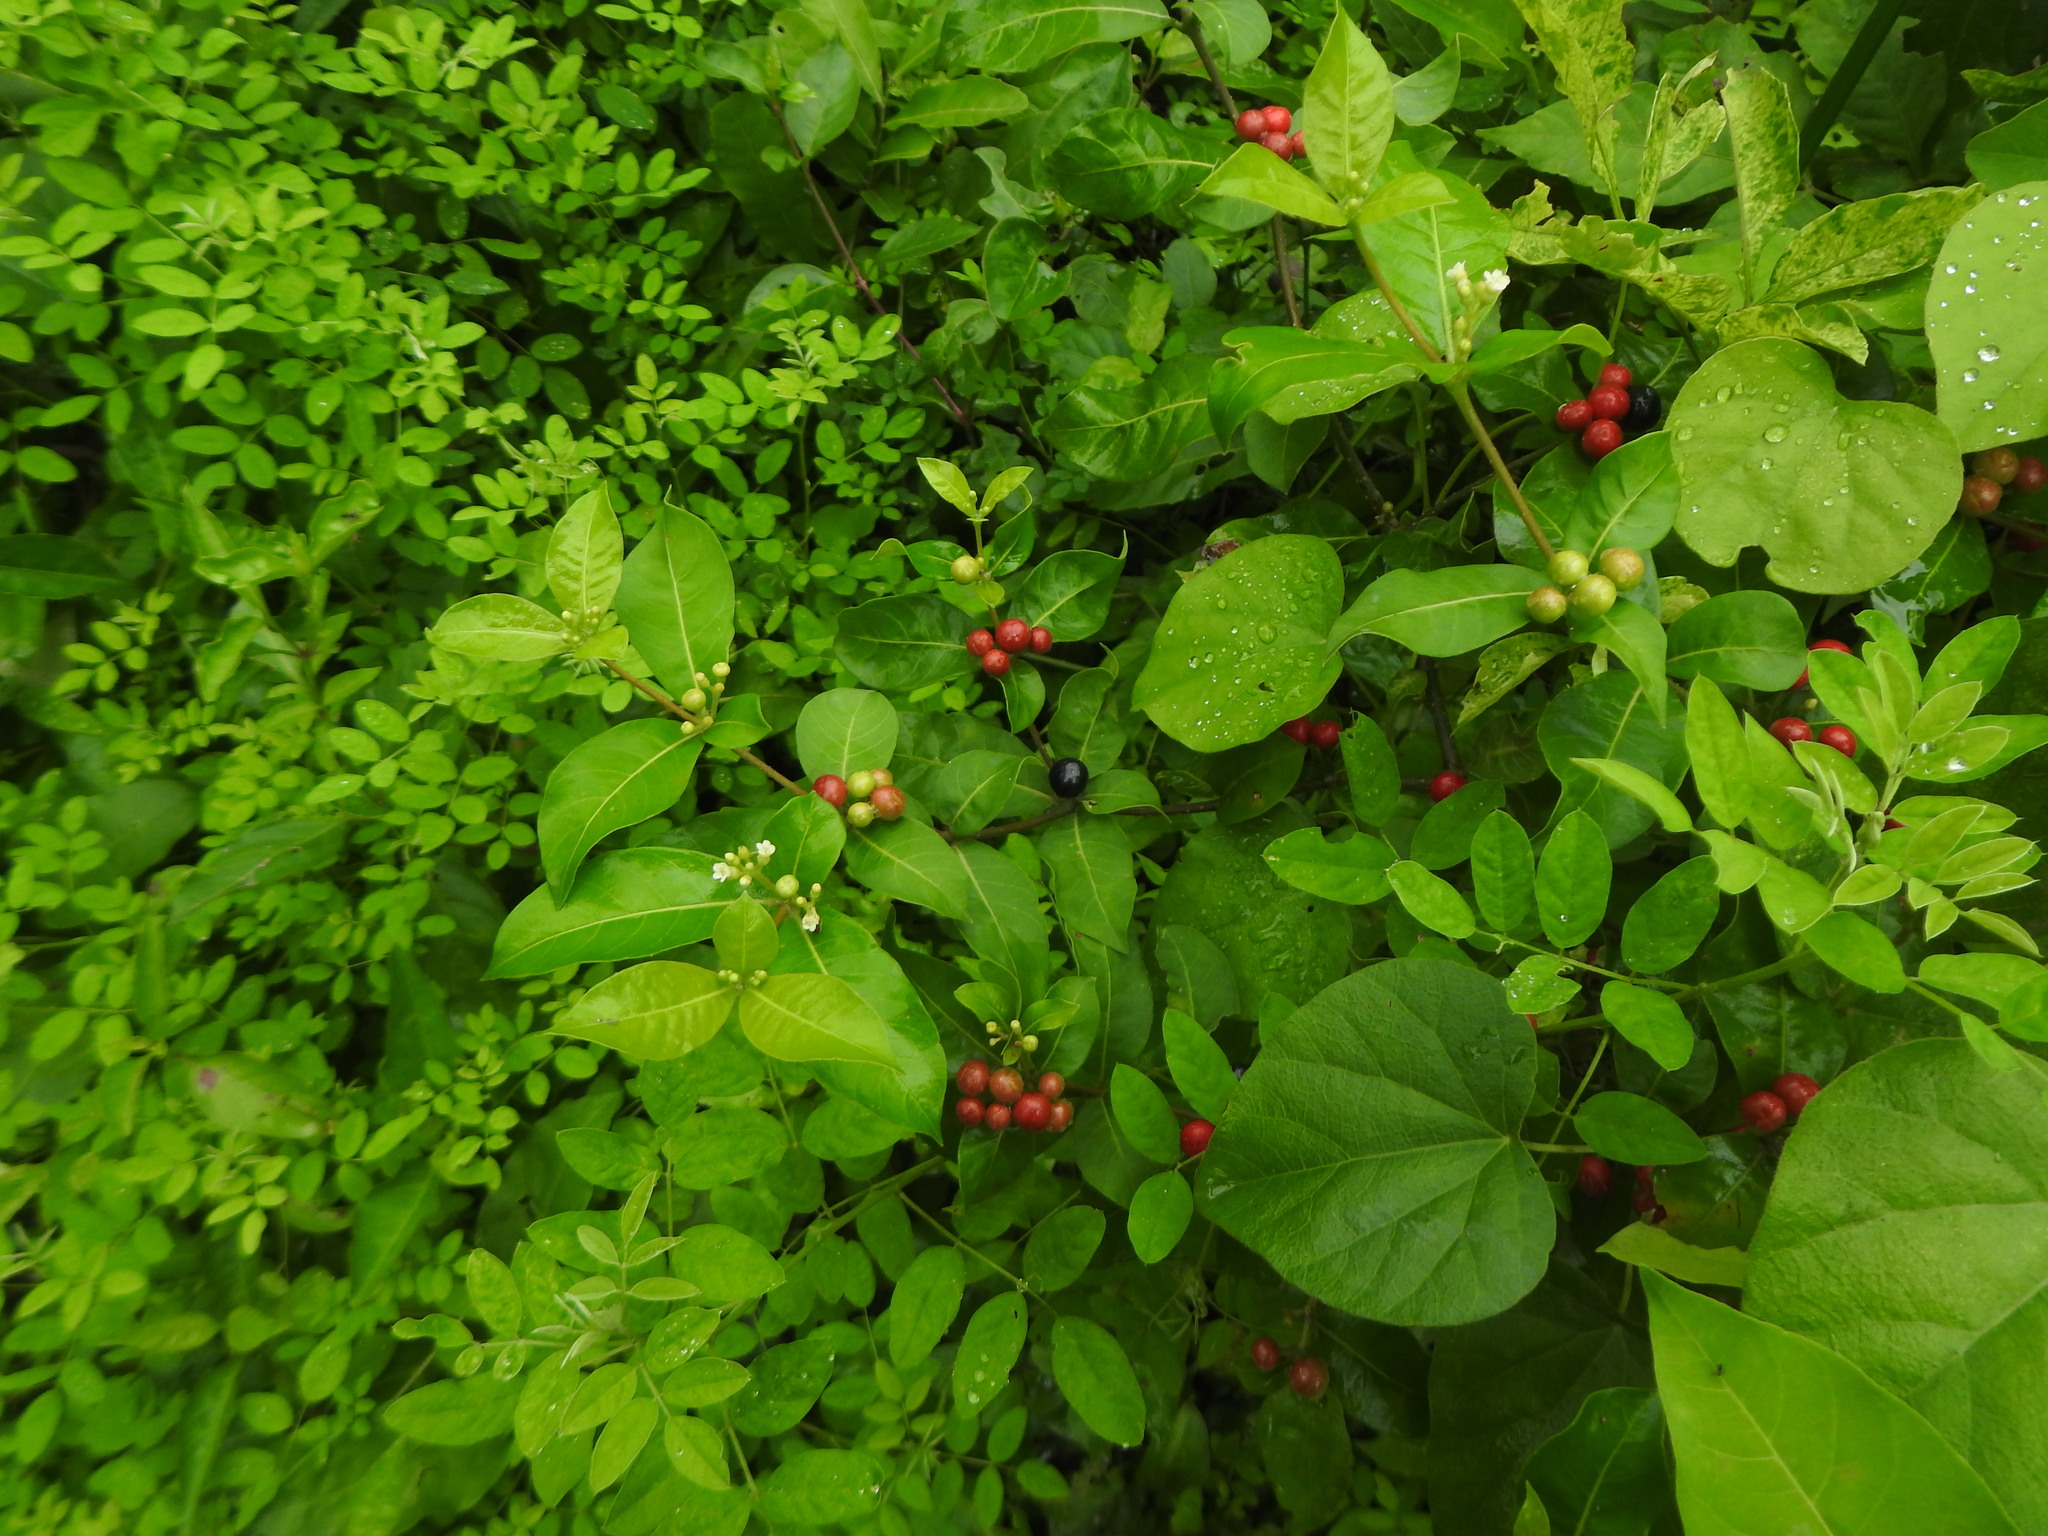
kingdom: Plantae
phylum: Tracheophyta
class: Magnoliopsida
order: Gentianales
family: Apocynaceae
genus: Rauvolfia
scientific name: Rauvolfia tetraphylla
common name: Four-leaf devil-pepper
